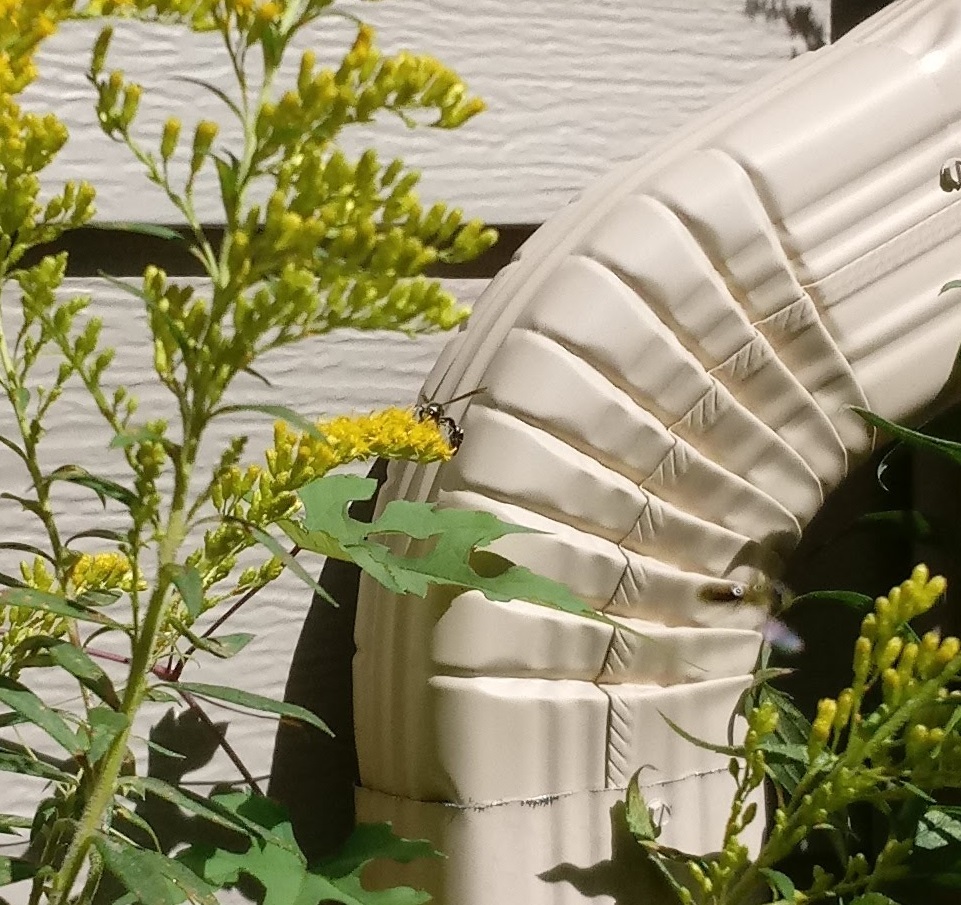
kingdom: Animalia
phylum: Arthropoda
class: Insecta
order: Hymenoptera
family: Vespidae
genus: Eumenes
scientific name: Eumenes fraternus
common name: Fraternal potter wasp
